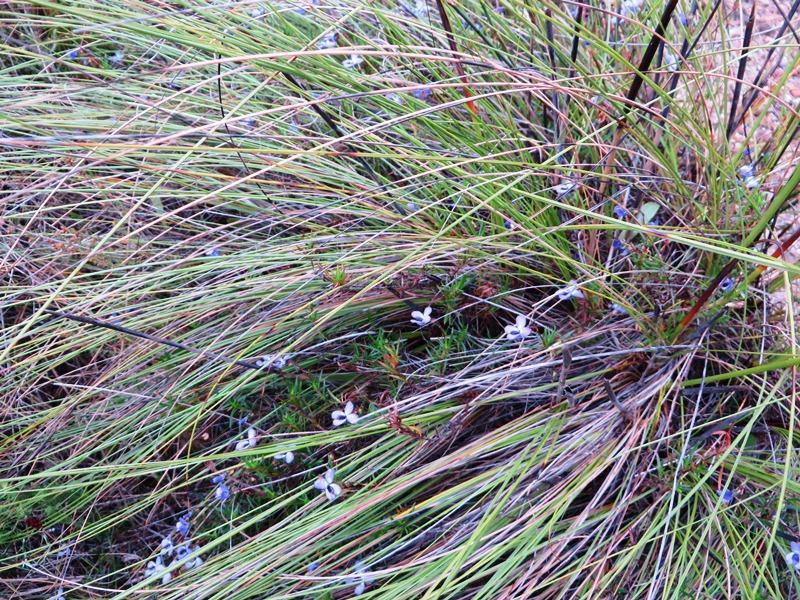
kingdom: Plantae
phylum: Tracheophyta
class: Magnoliopsida
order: Malpighiales
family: Violaceae
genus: Viola
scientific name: Viola decumbens
